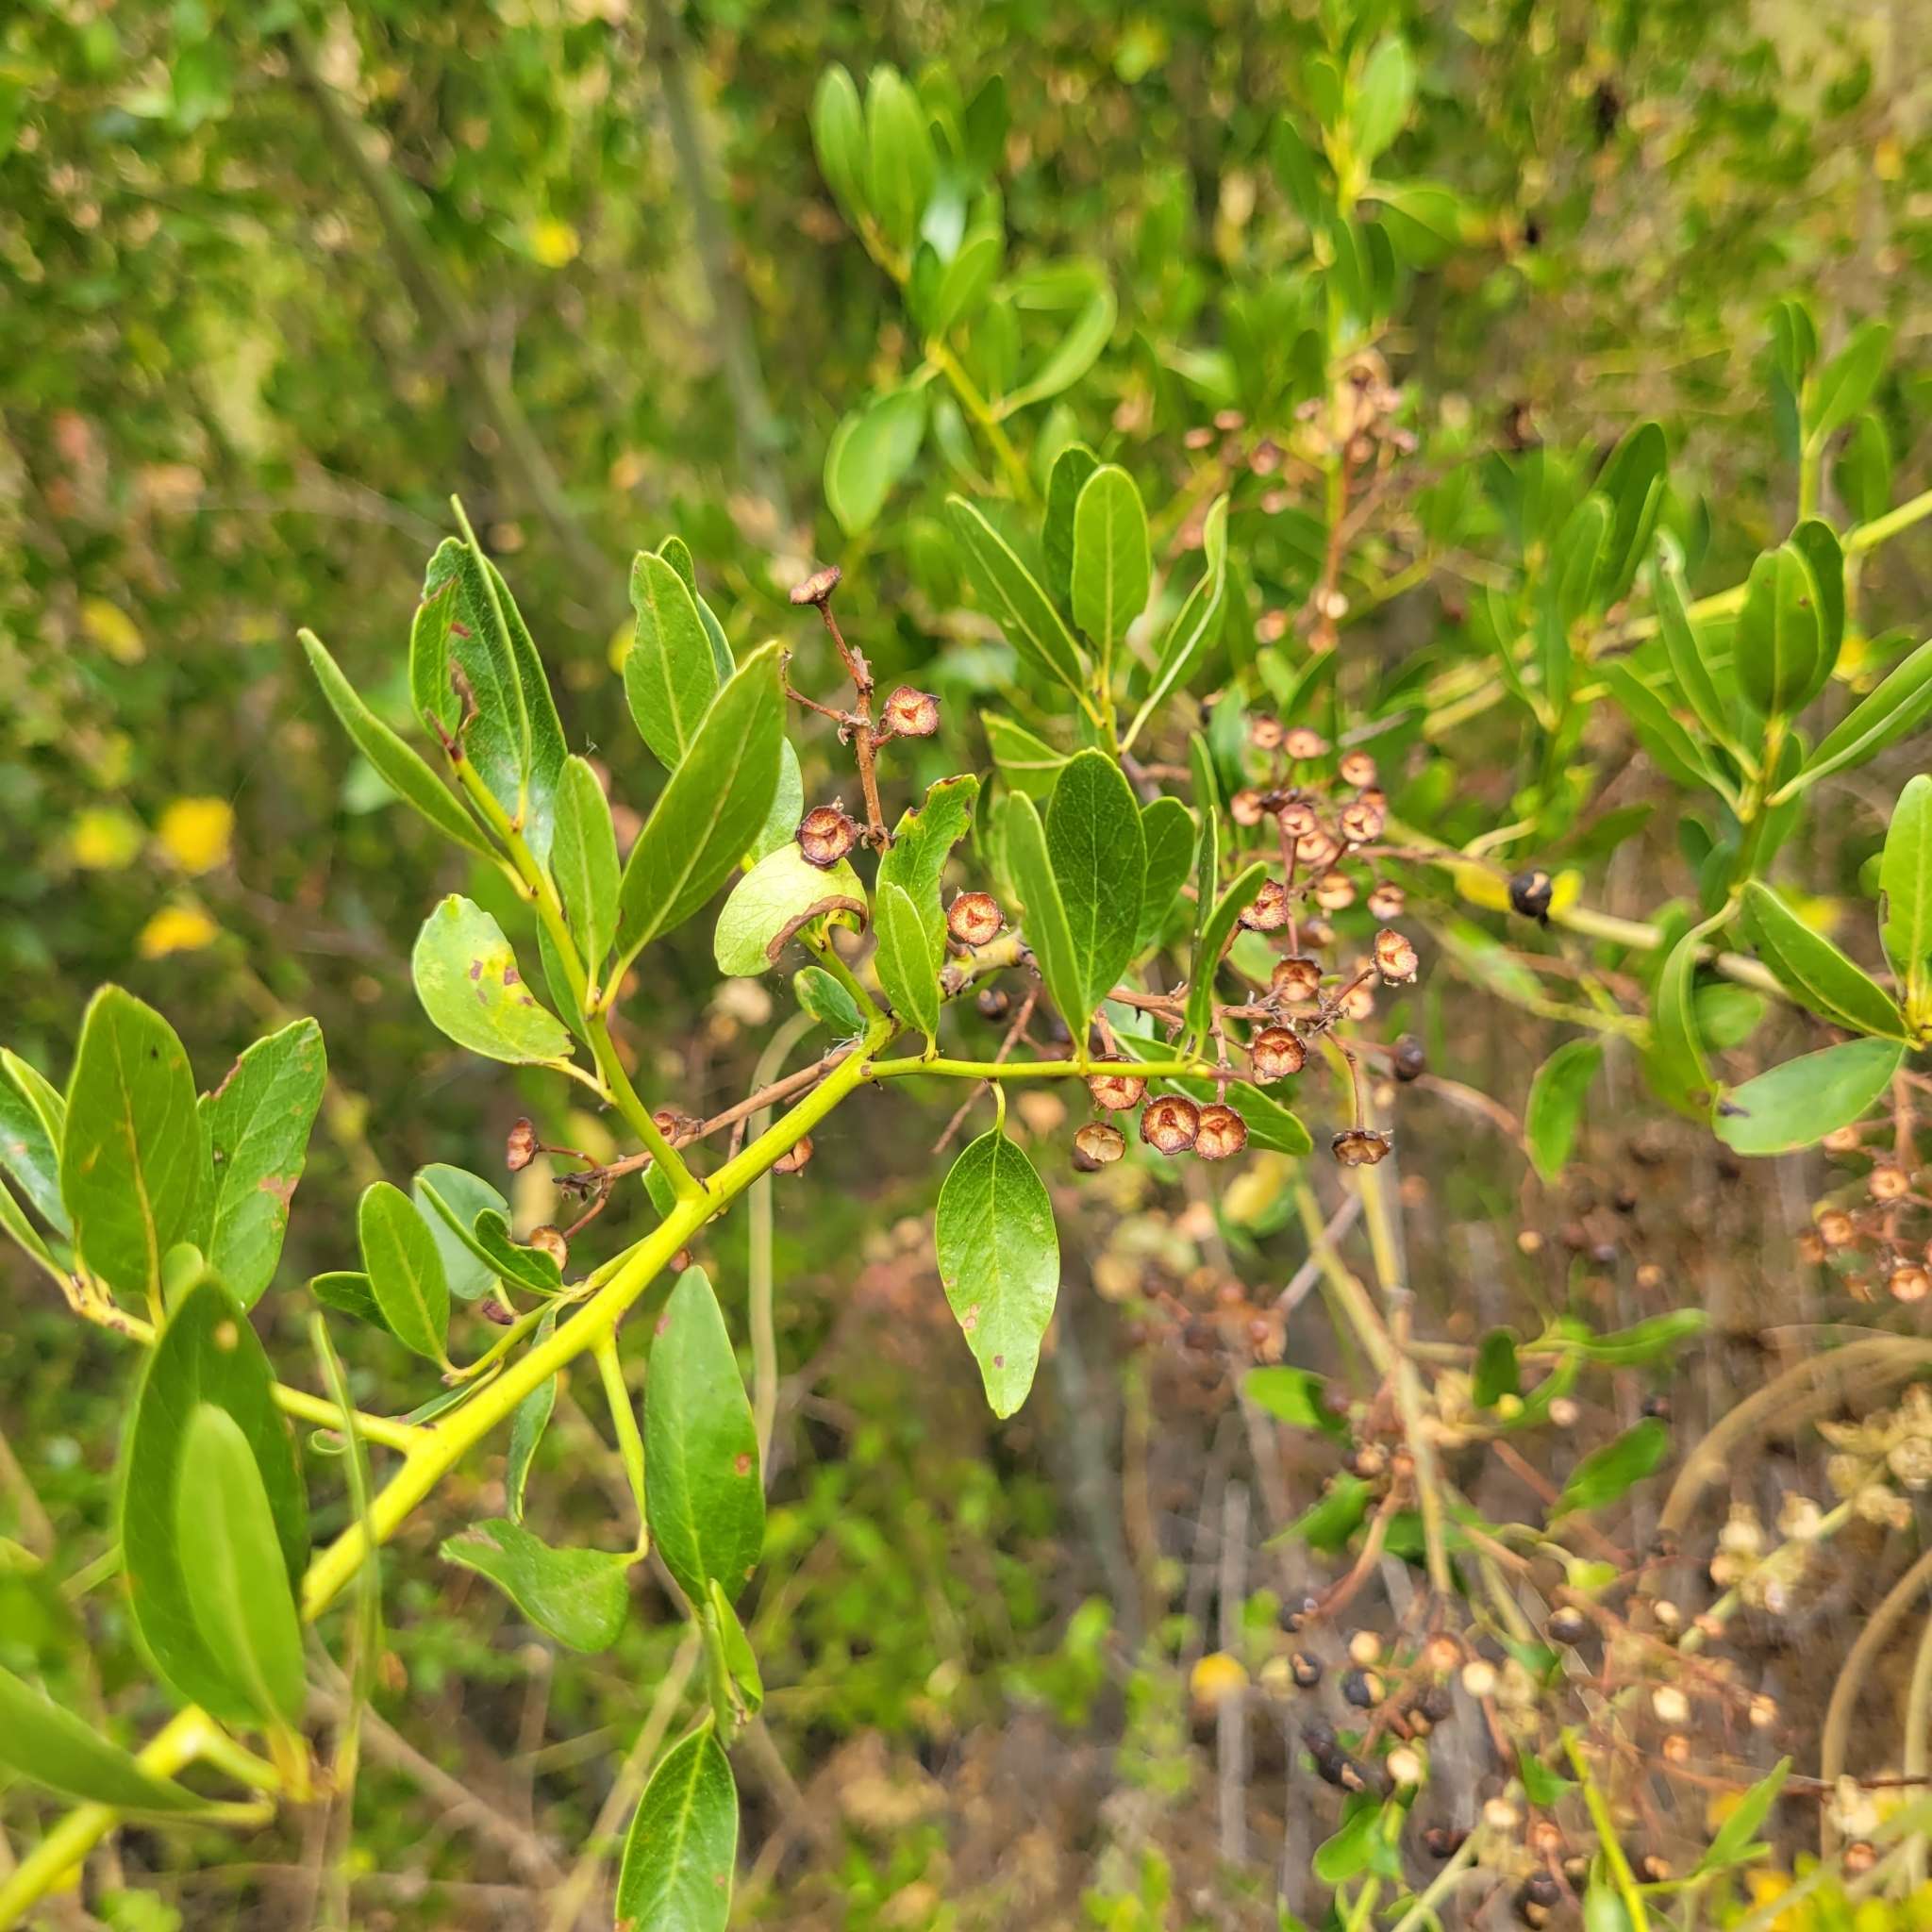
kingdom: Plantae
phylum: Tracheophyta
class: Magnoliopsida
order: Rosales
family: Rhamnaceae
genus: Ceanothus
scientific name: Ceanothus spinosus
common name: Greenbark whitethorn
